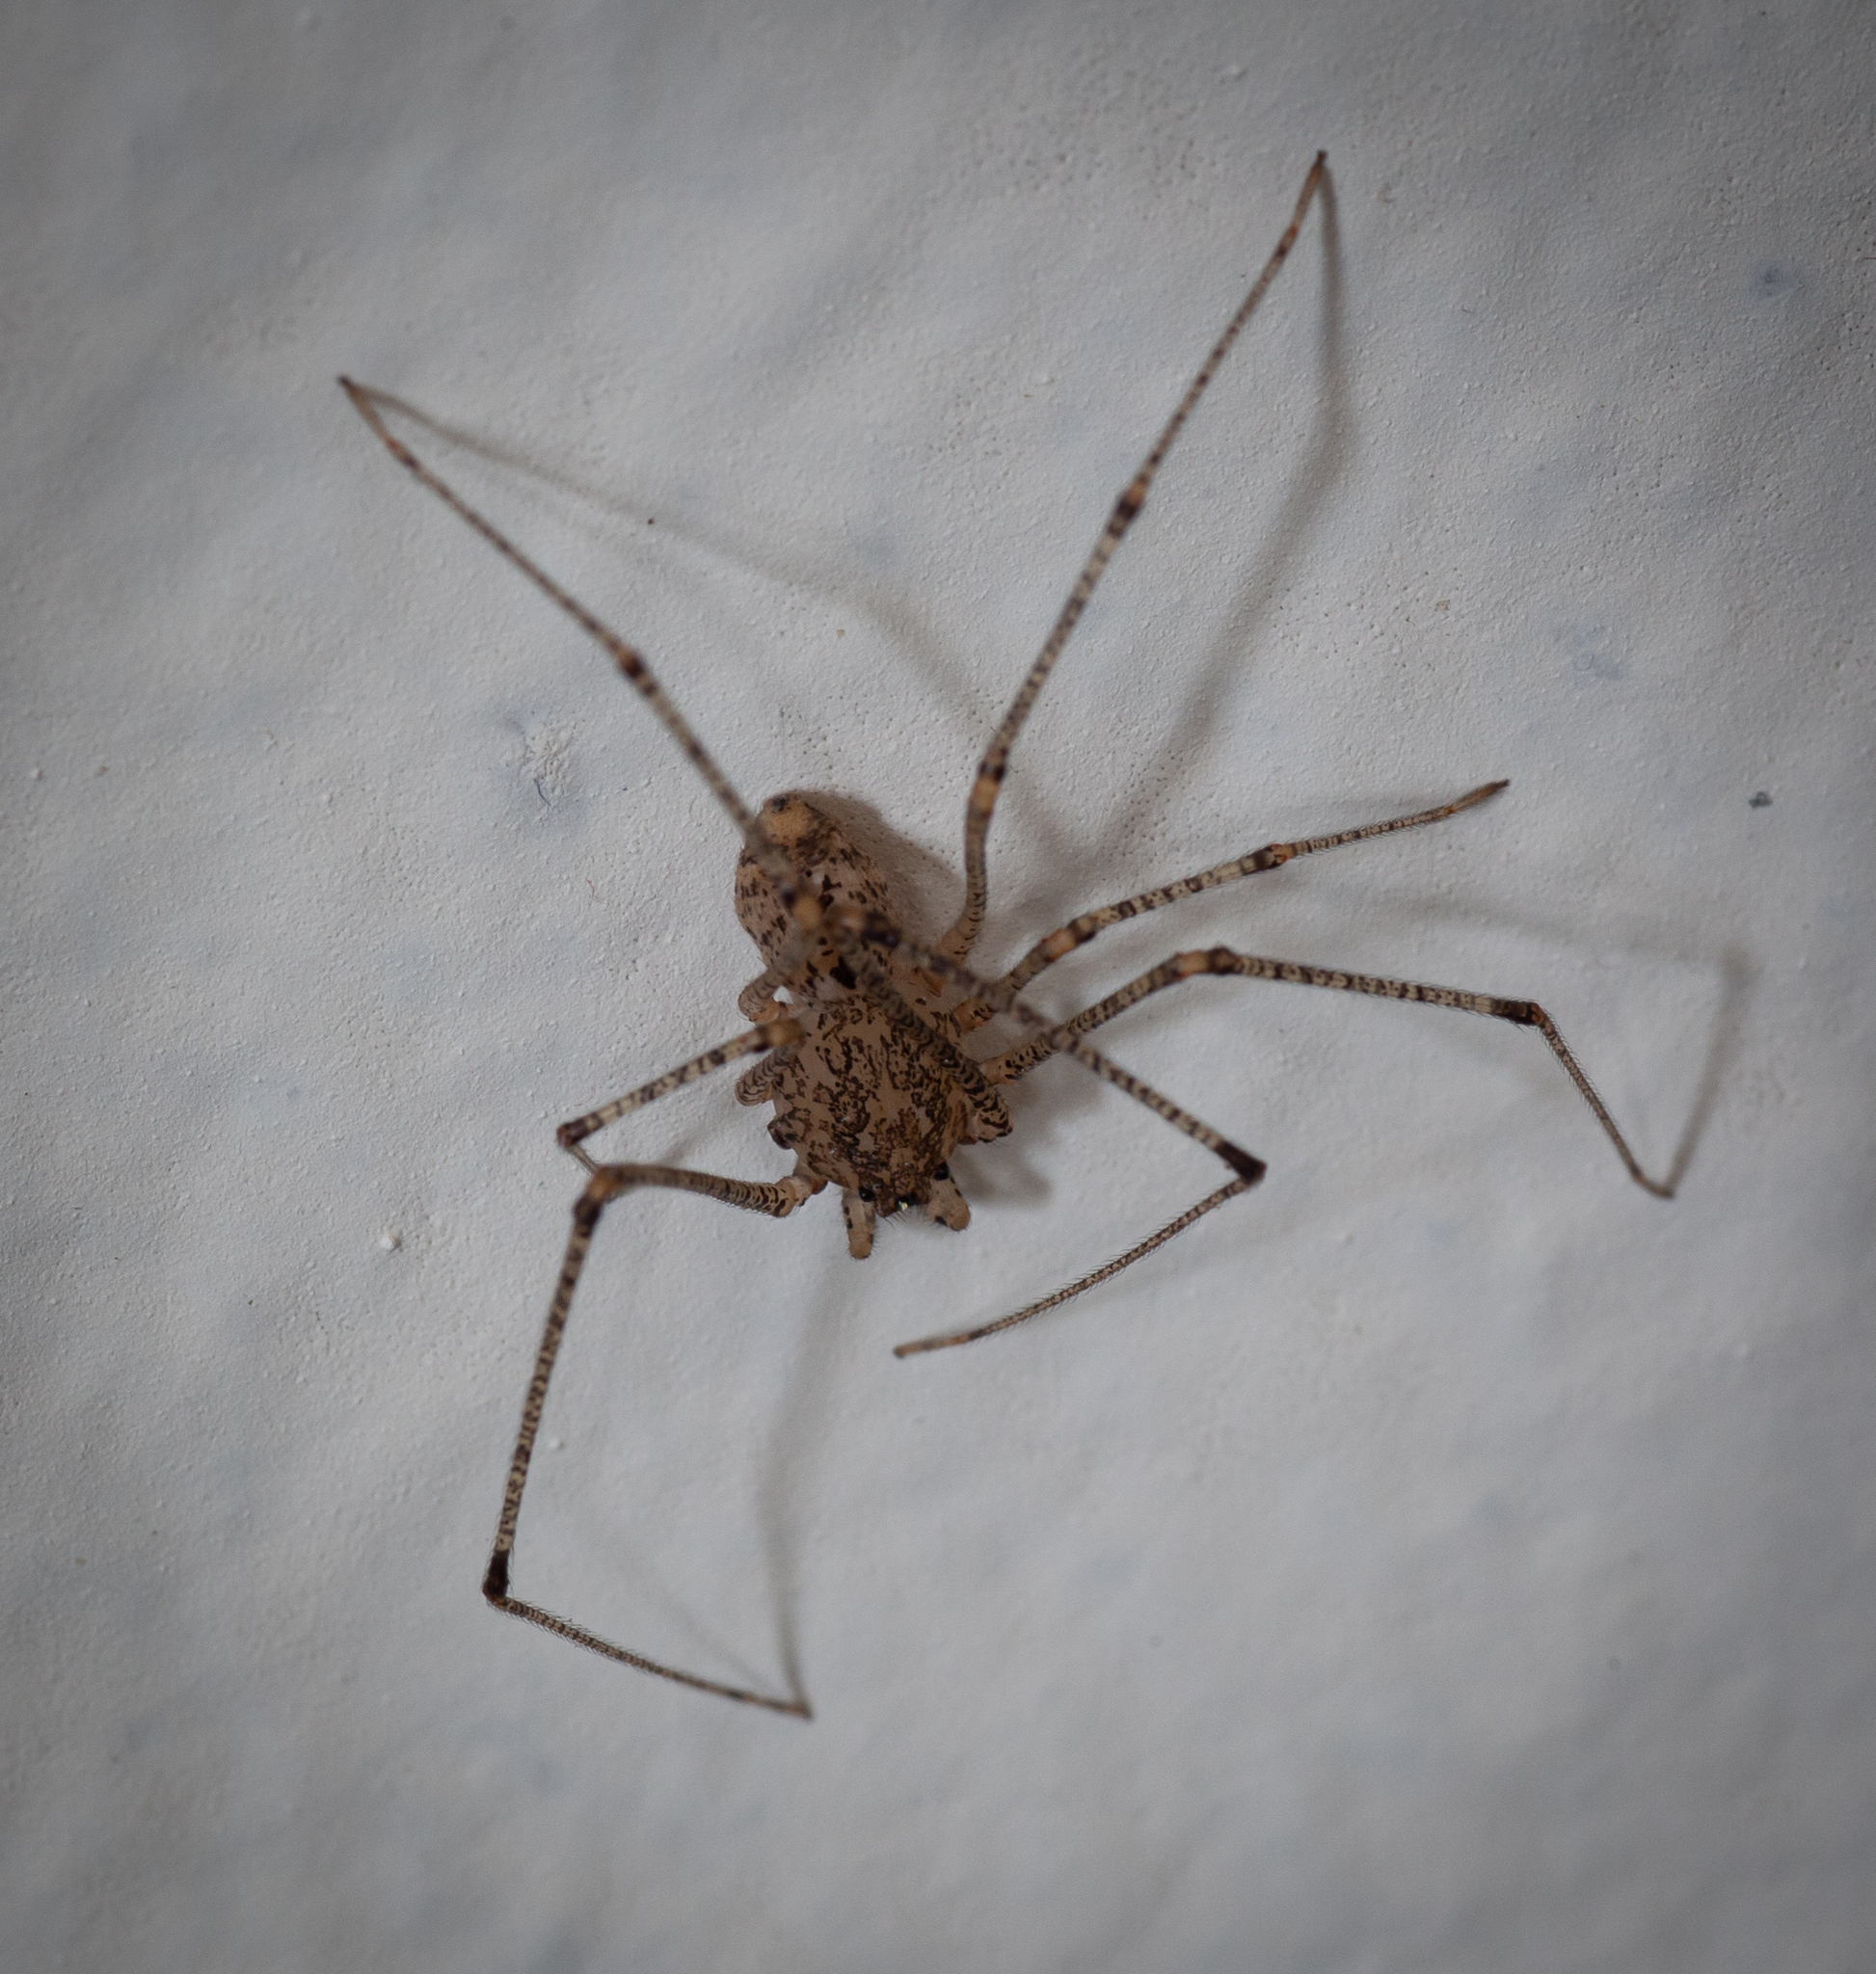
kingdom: Animalia
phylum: Arthropoda
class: Arachnida
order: Araneae
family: Scytodidae
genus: Scytodes
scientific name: Scytodes atlacoya
